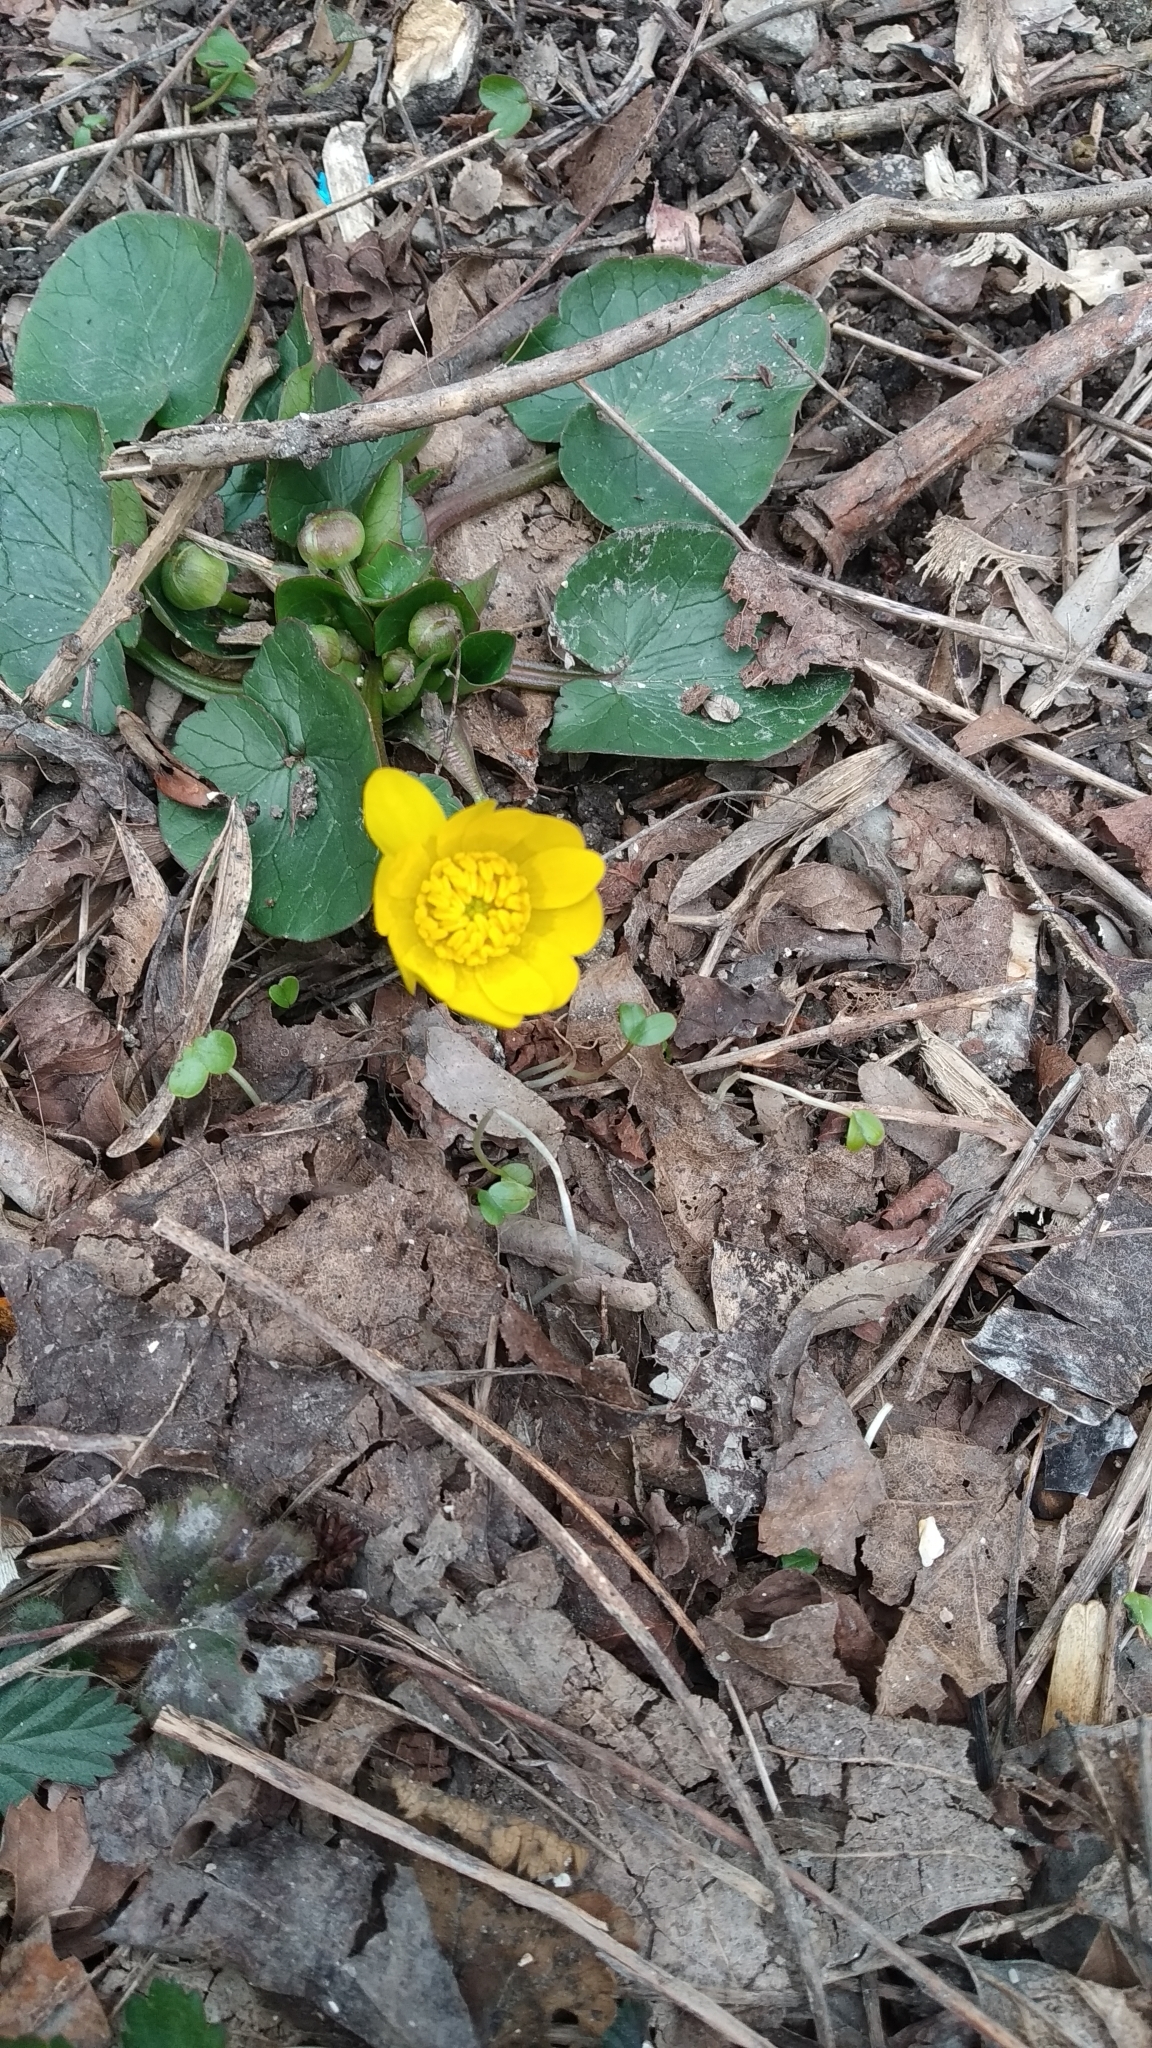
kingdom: Plantae
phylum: Tracheophyta
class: Magnoliopsida
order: Ranunculales
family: Ranunculaceae
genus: Ficaria
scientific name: Ficaria verna
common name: Lesser celandine
